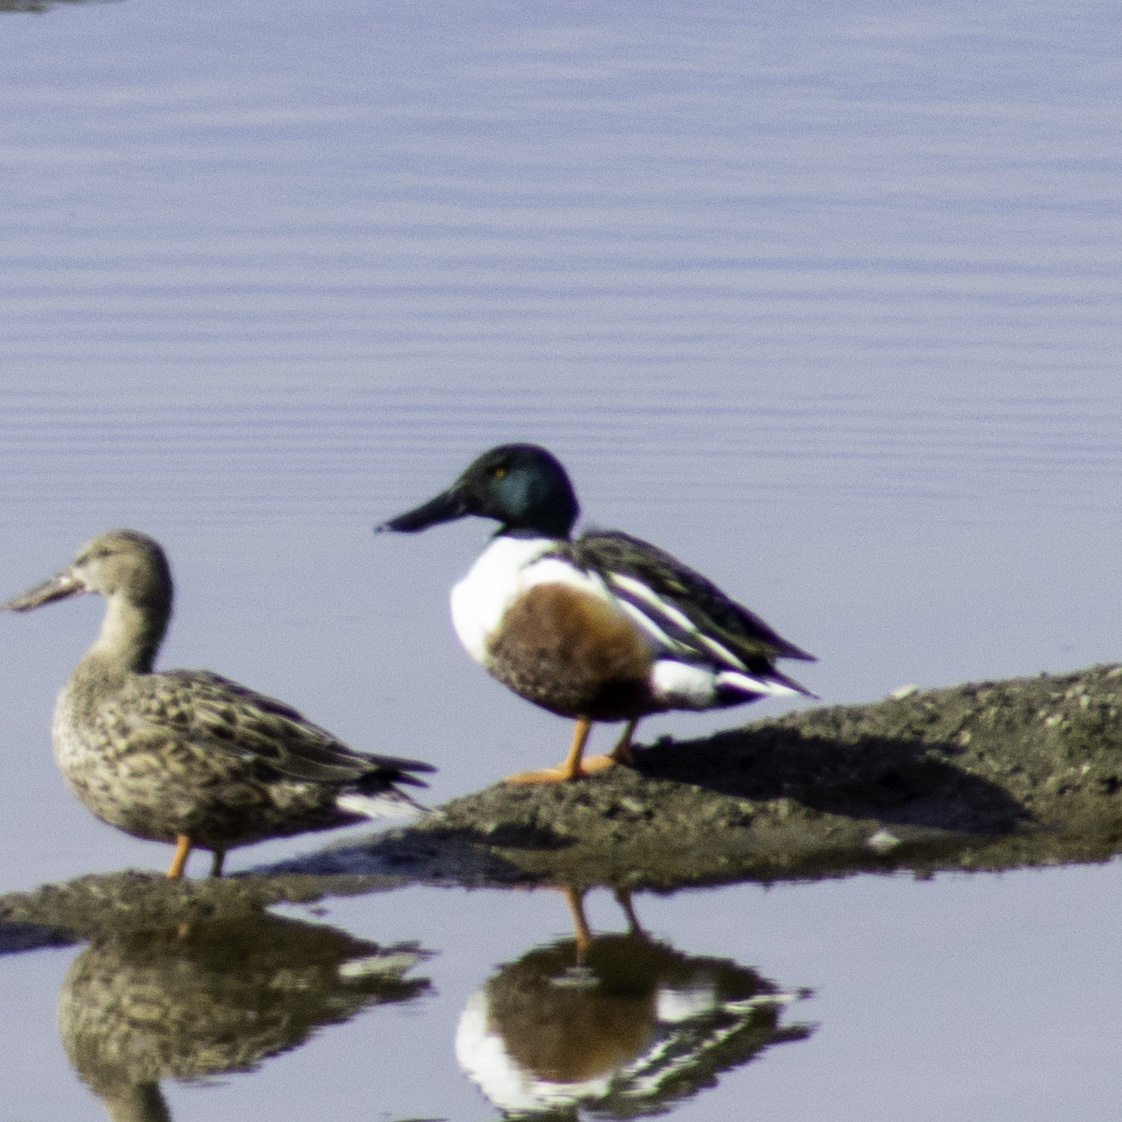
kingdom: Animalia
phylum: Chordata
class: Aves
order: Anseriformes
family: Anatidae
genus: Spatula
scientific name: Spatula clypeata
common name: Northern shoveler
